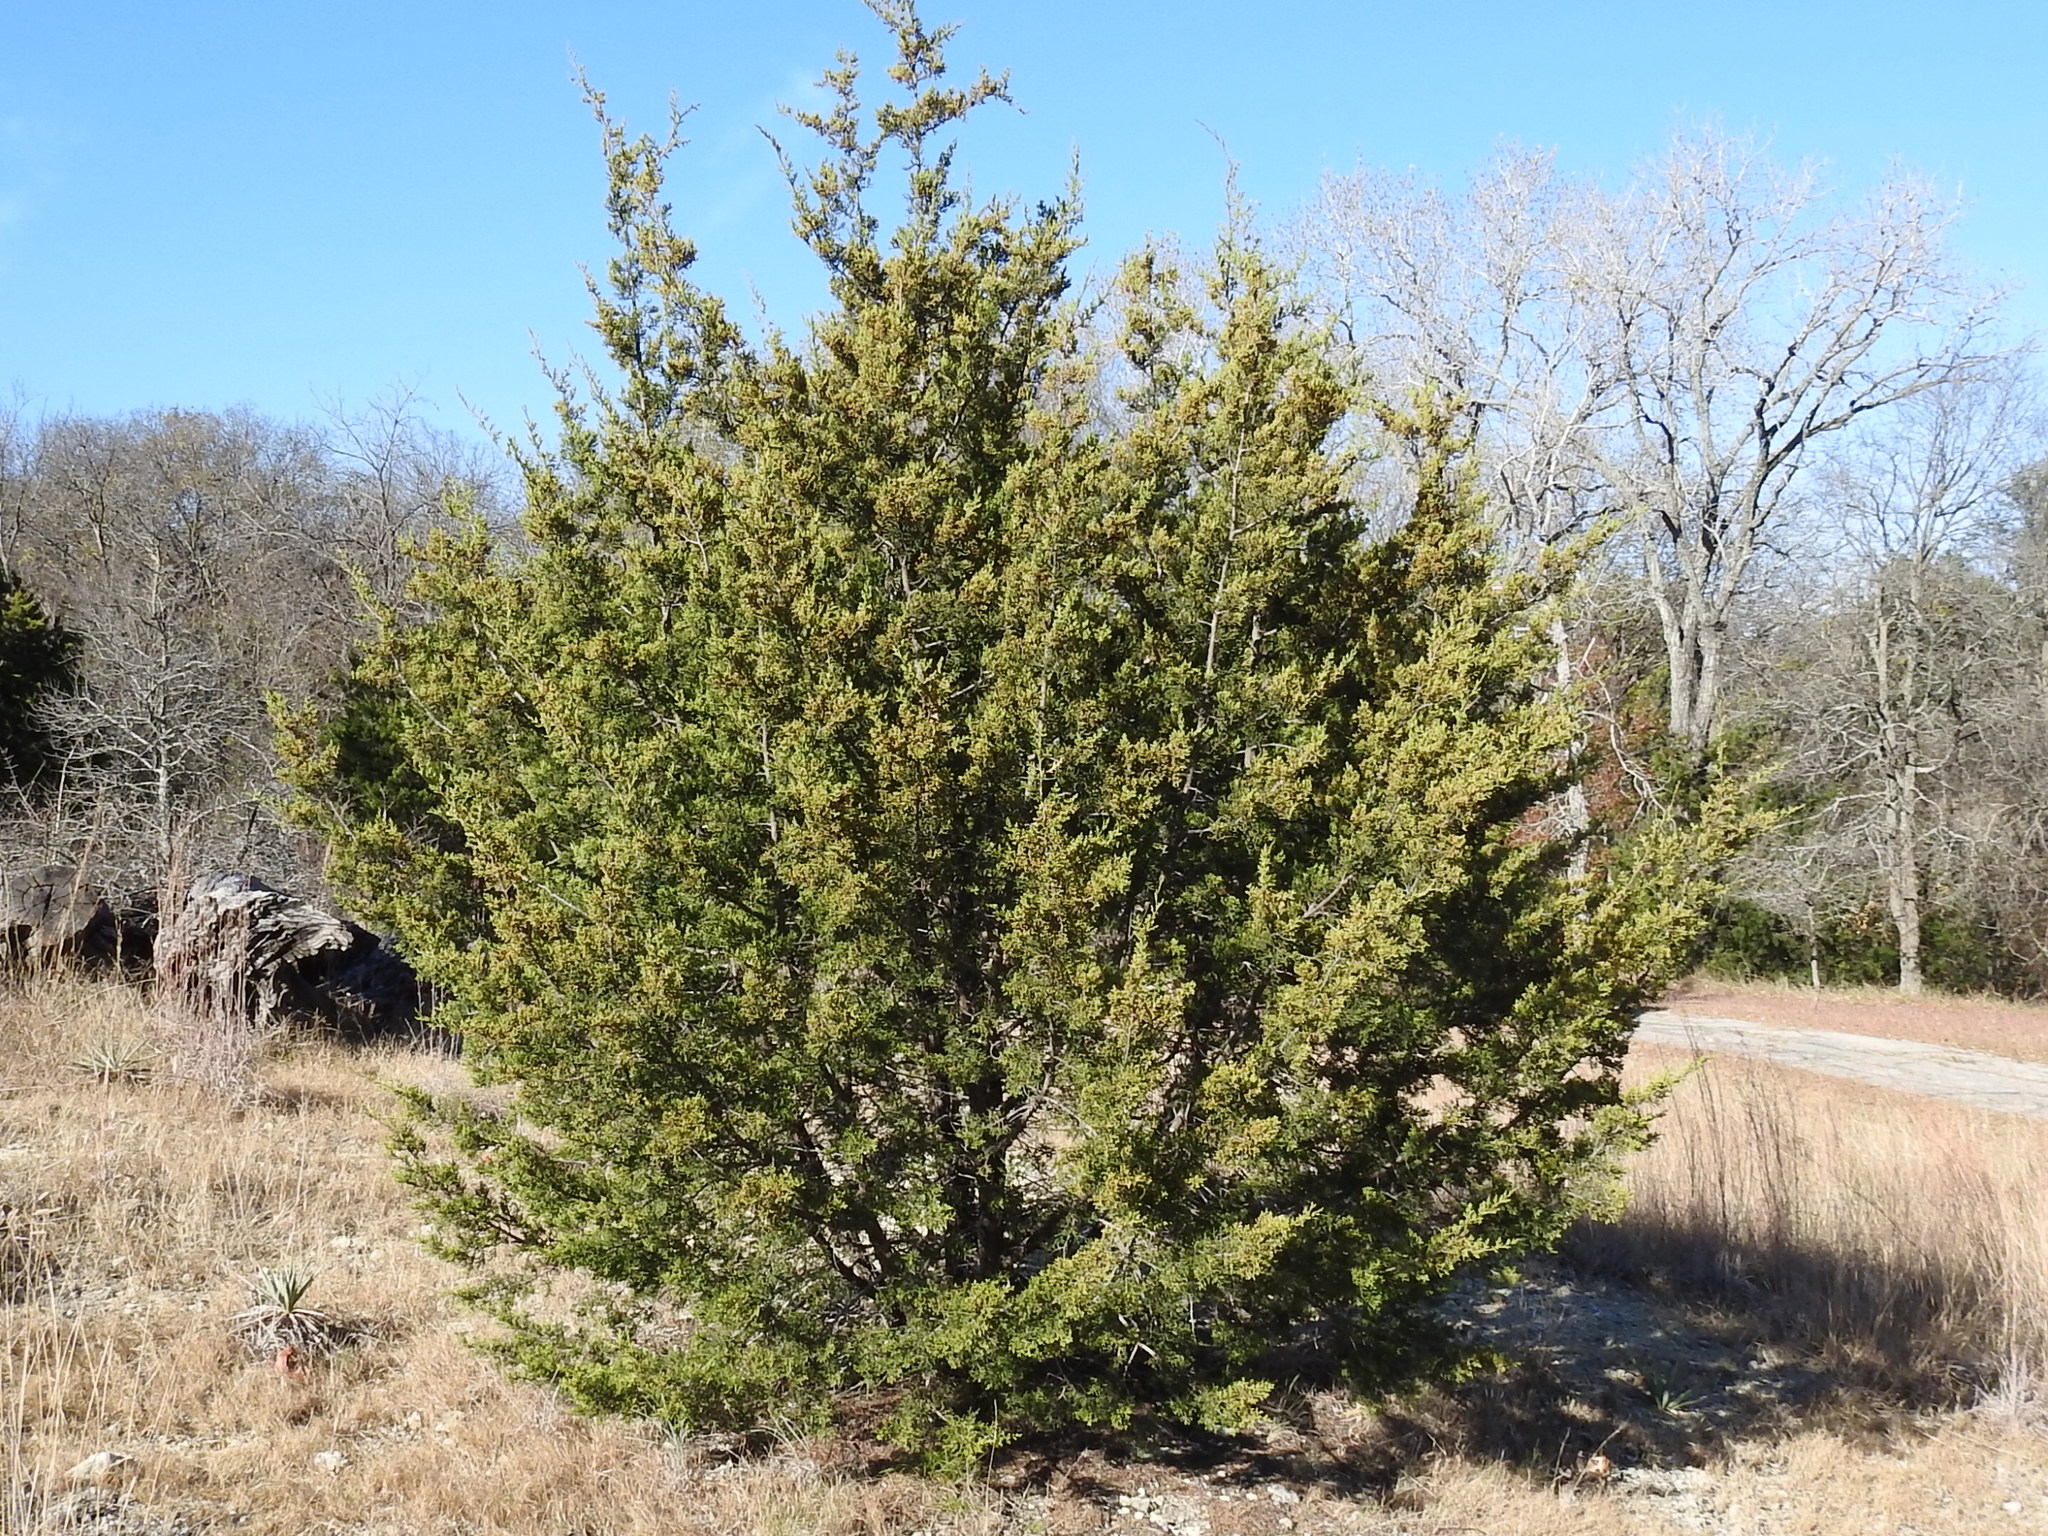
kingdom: Plantae
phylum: Tracheophyta
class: Pinopsida
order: Pinales
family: Cupressaceae
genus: Juniperus
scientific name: Juniperus ashei
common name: Mexican juniper
